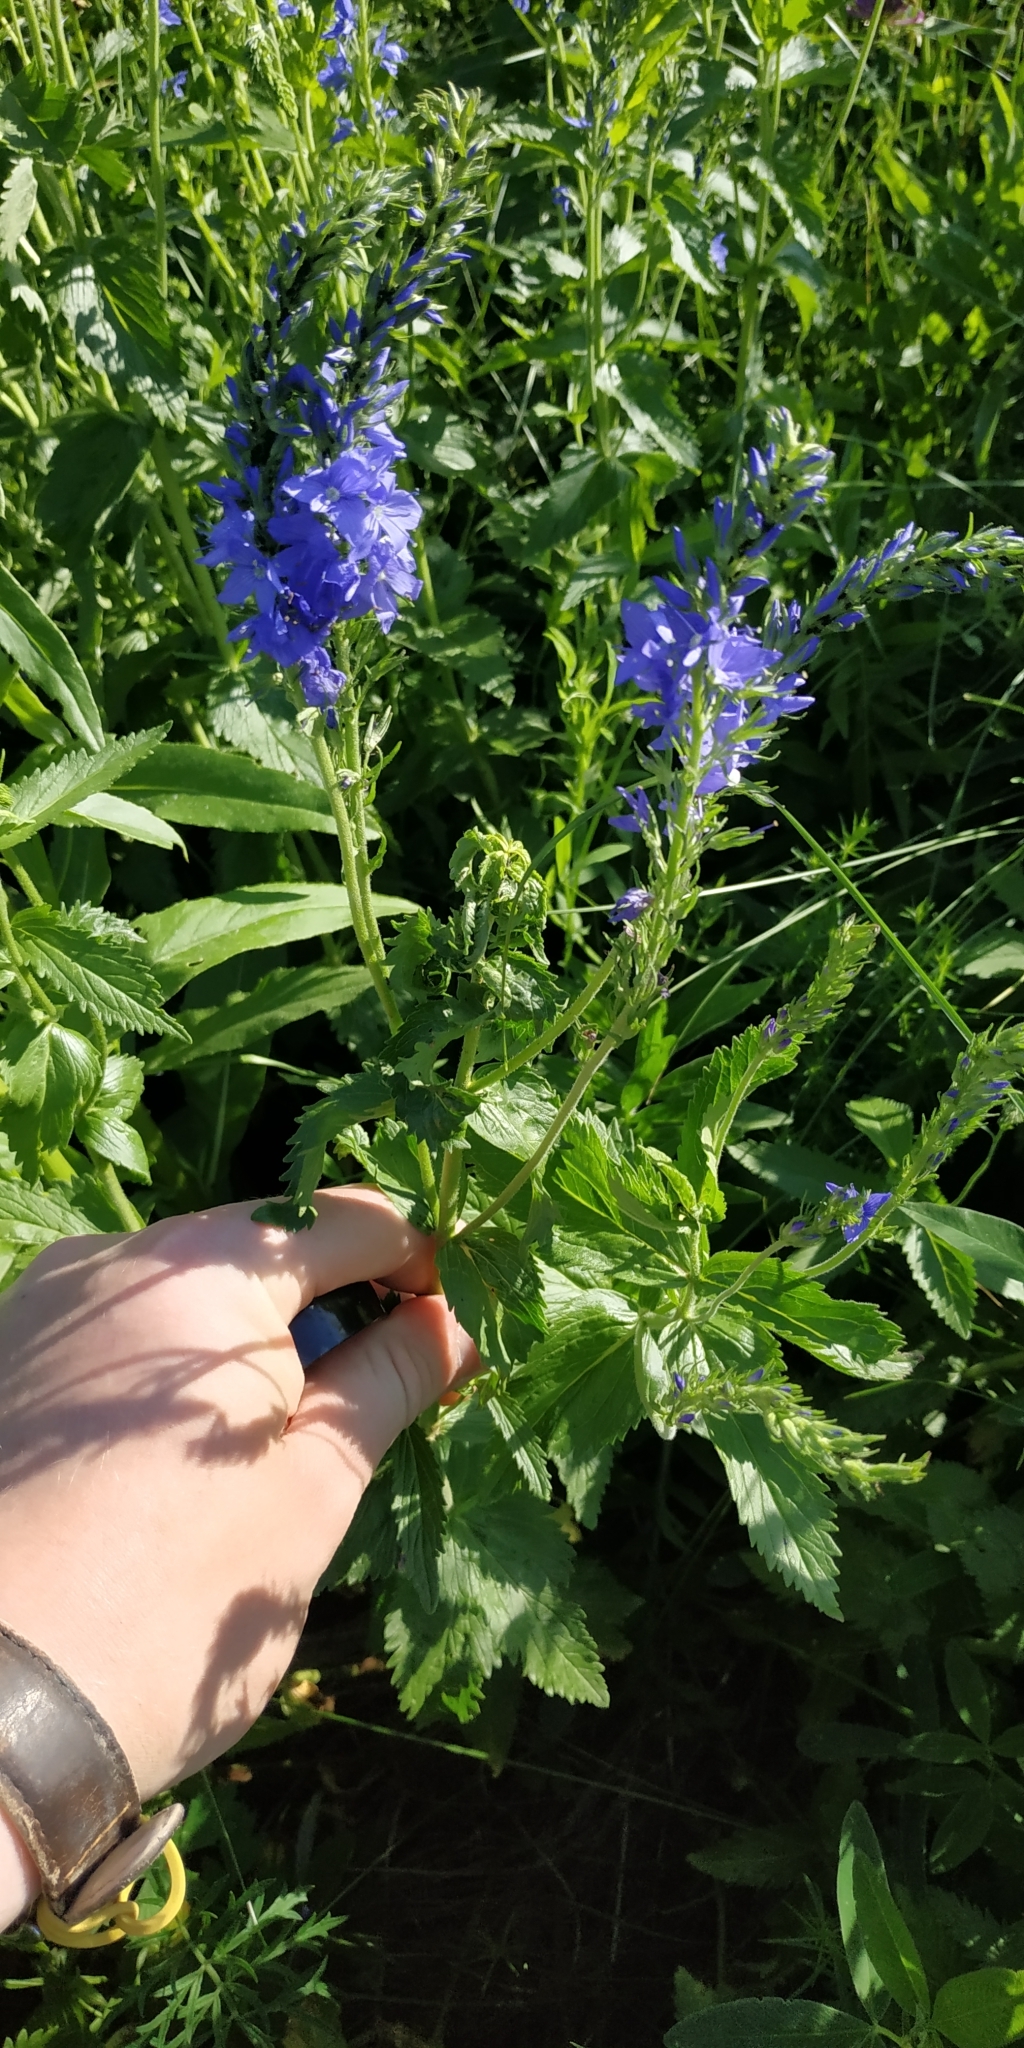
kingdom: Plantae
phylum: Tracheophyta
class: Magnoliopsida
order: Lamiales
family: Plantaginaceae
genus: Veronica
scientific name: Veronica teucrium
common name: Large speedwell
